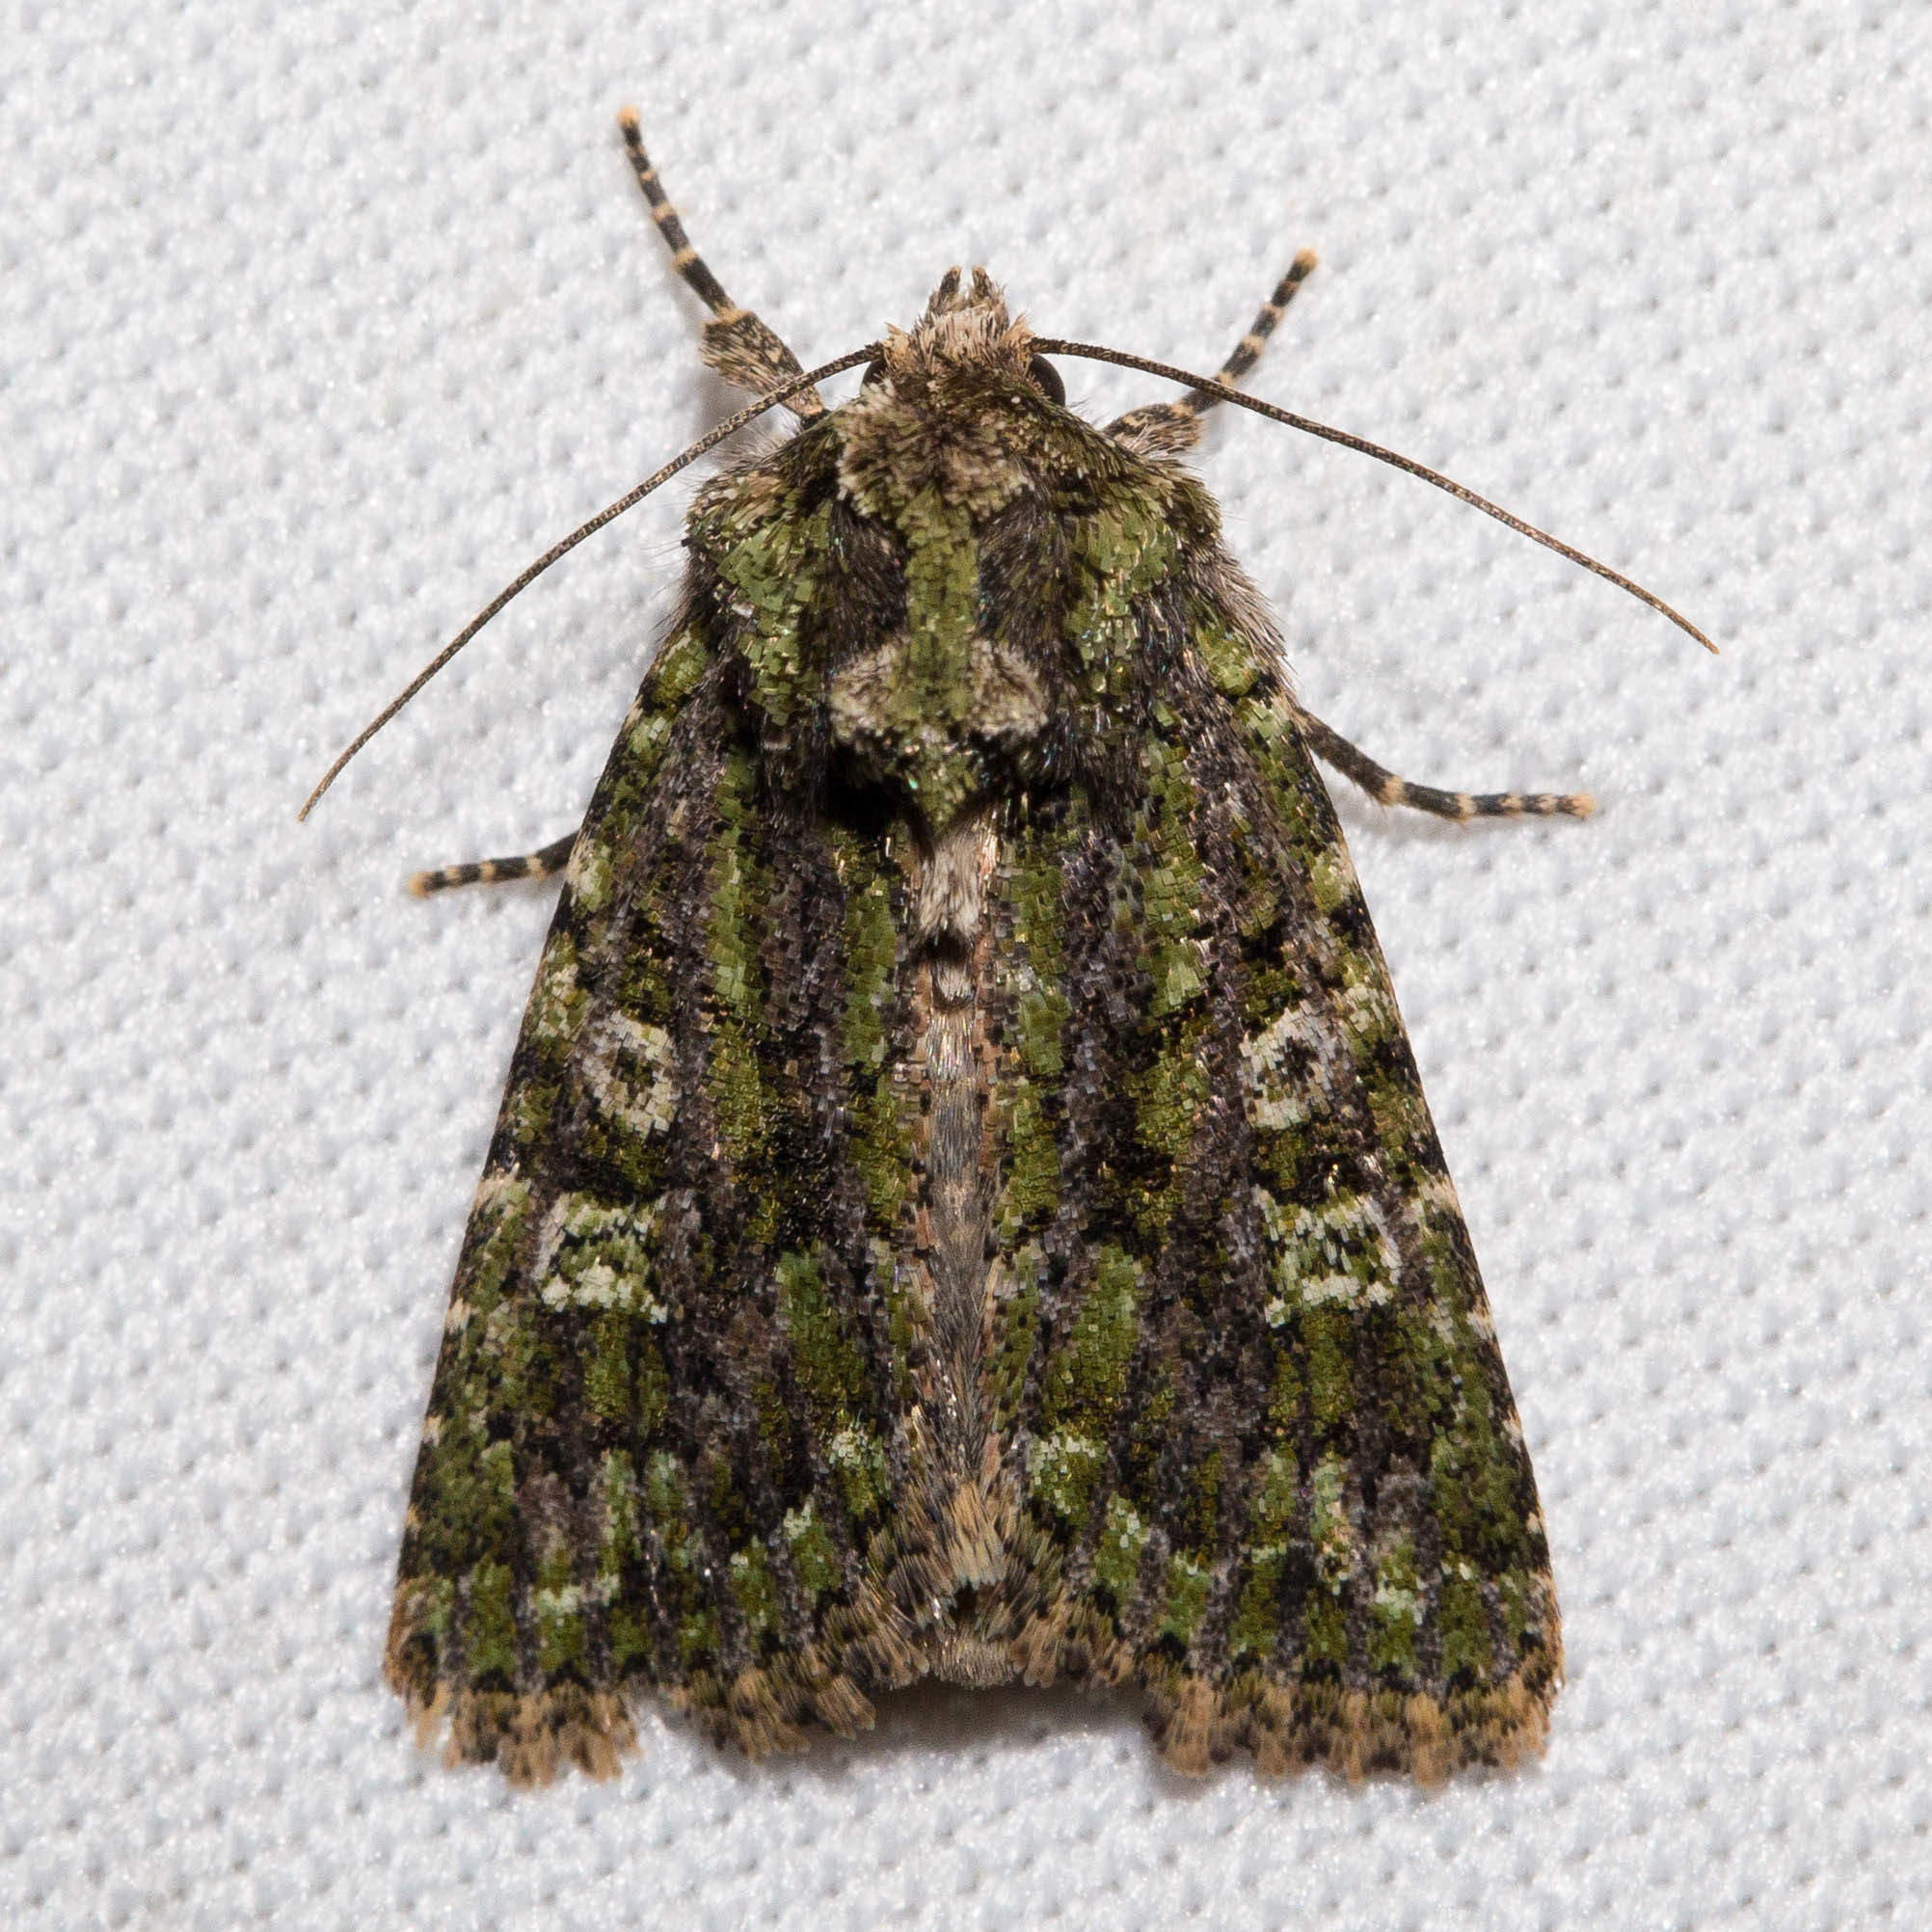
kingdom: Animalia
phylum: Arthropoda
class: Insecta
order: Lepidoptera
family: Noctuidae
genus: Aseptis
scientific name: Aseptis marina
